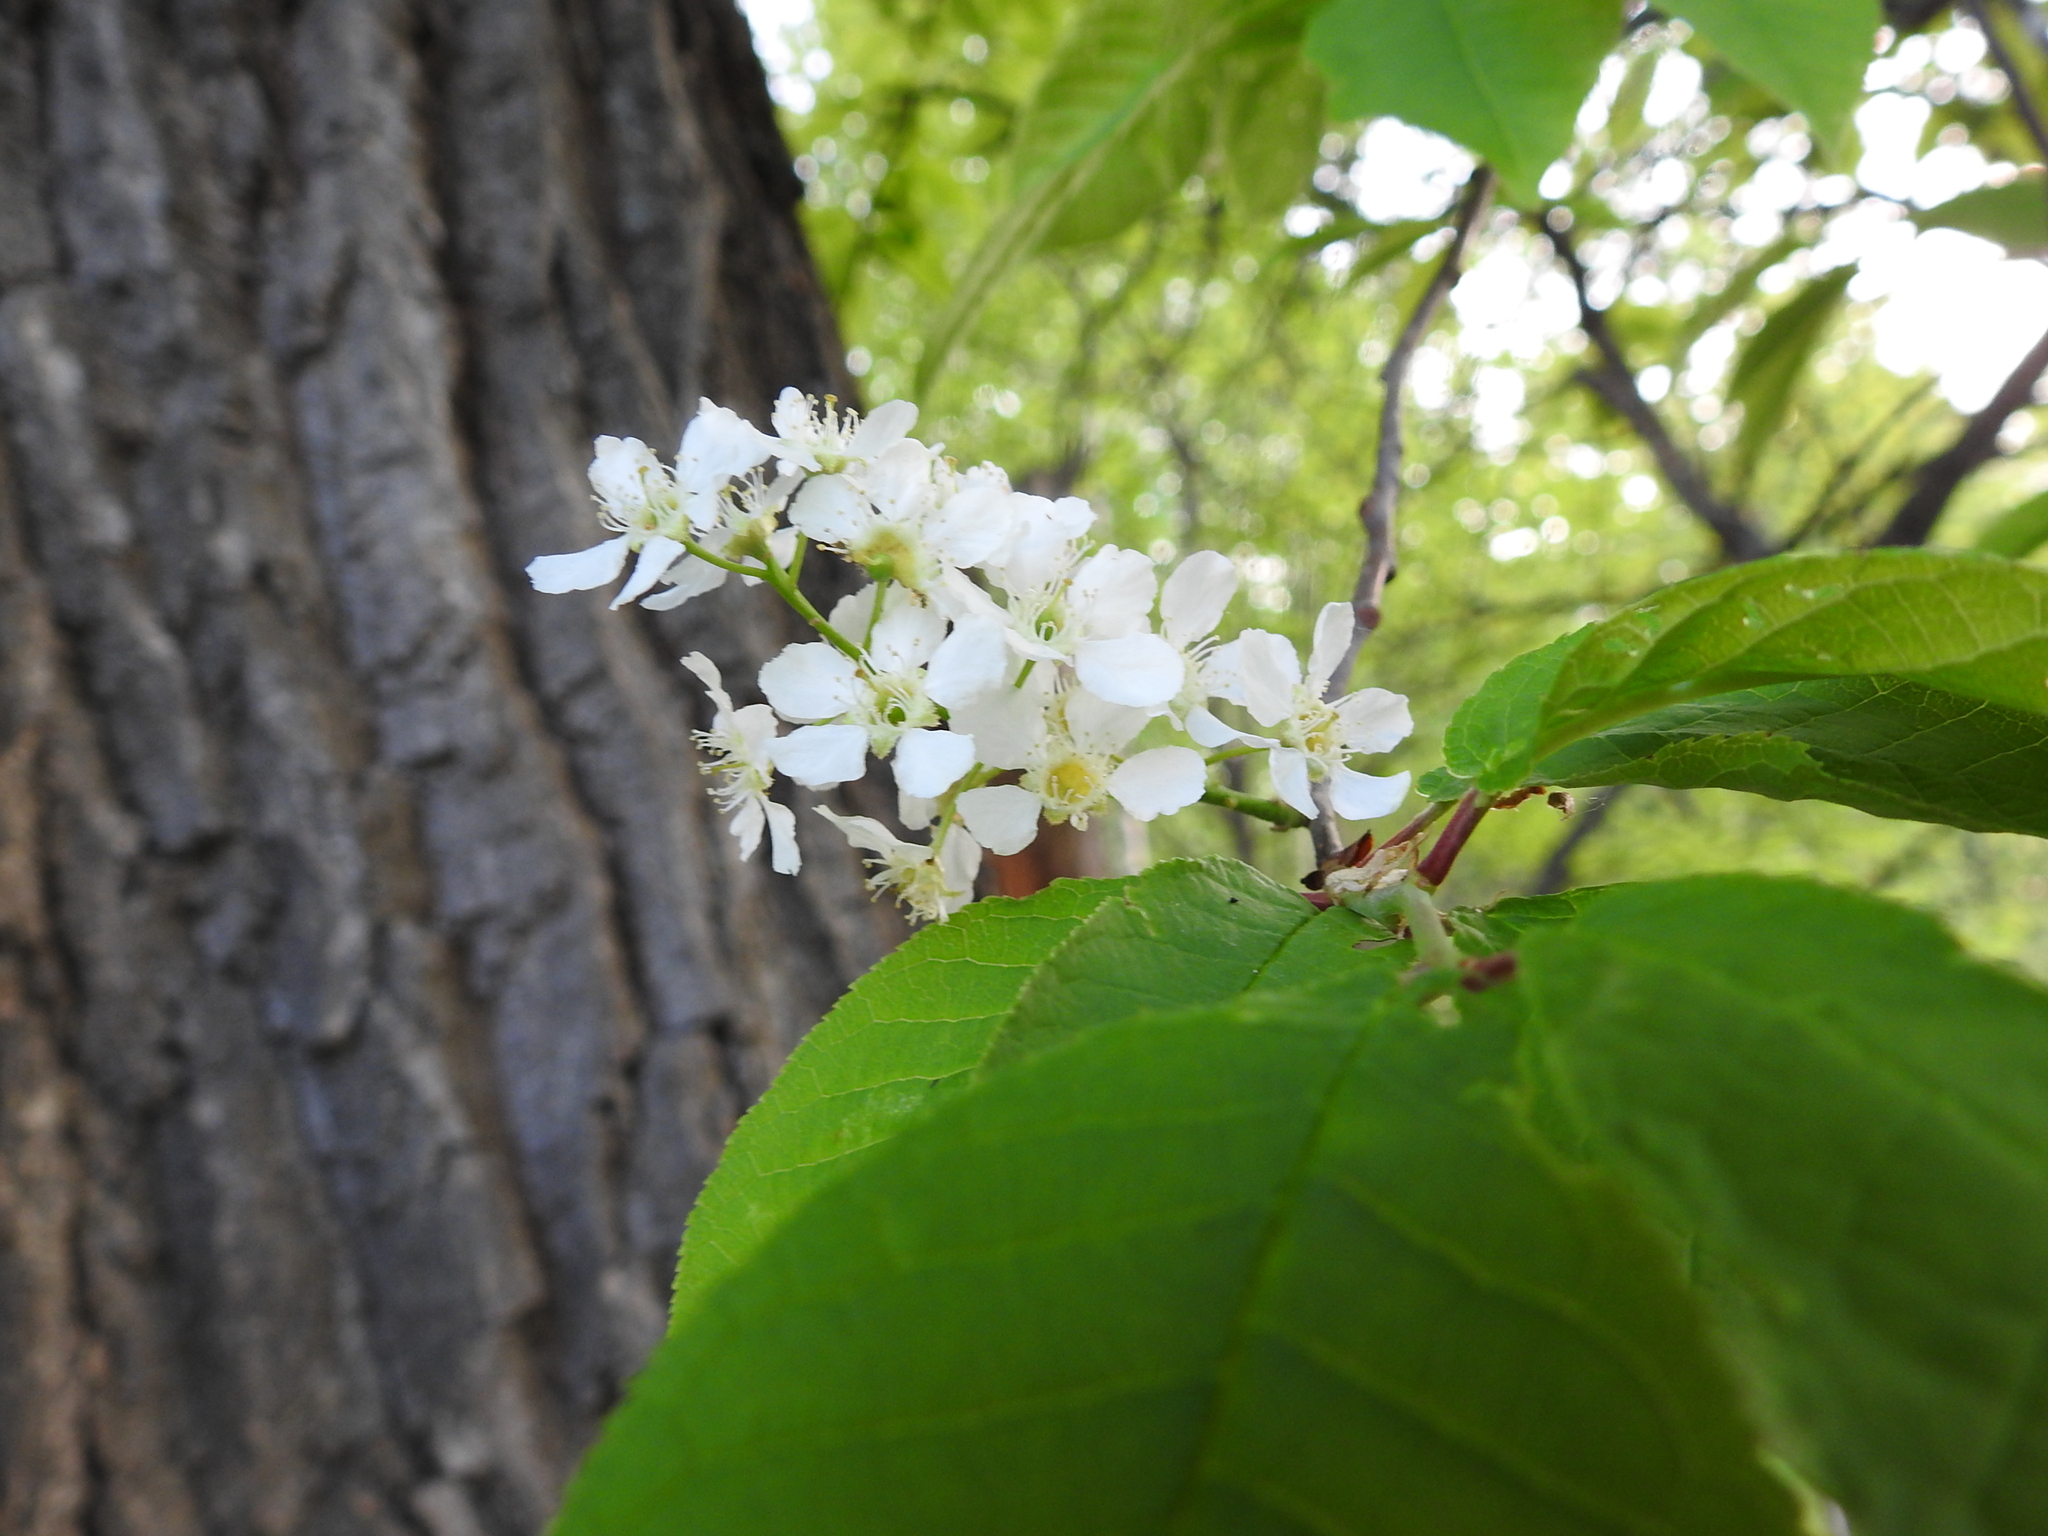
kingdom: Plantae
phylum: Tracheophyta
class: Magnoliopsida
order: Rosales
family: Rosaceae
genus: Prunus
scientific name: Prunus padus
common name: Bird cherry
